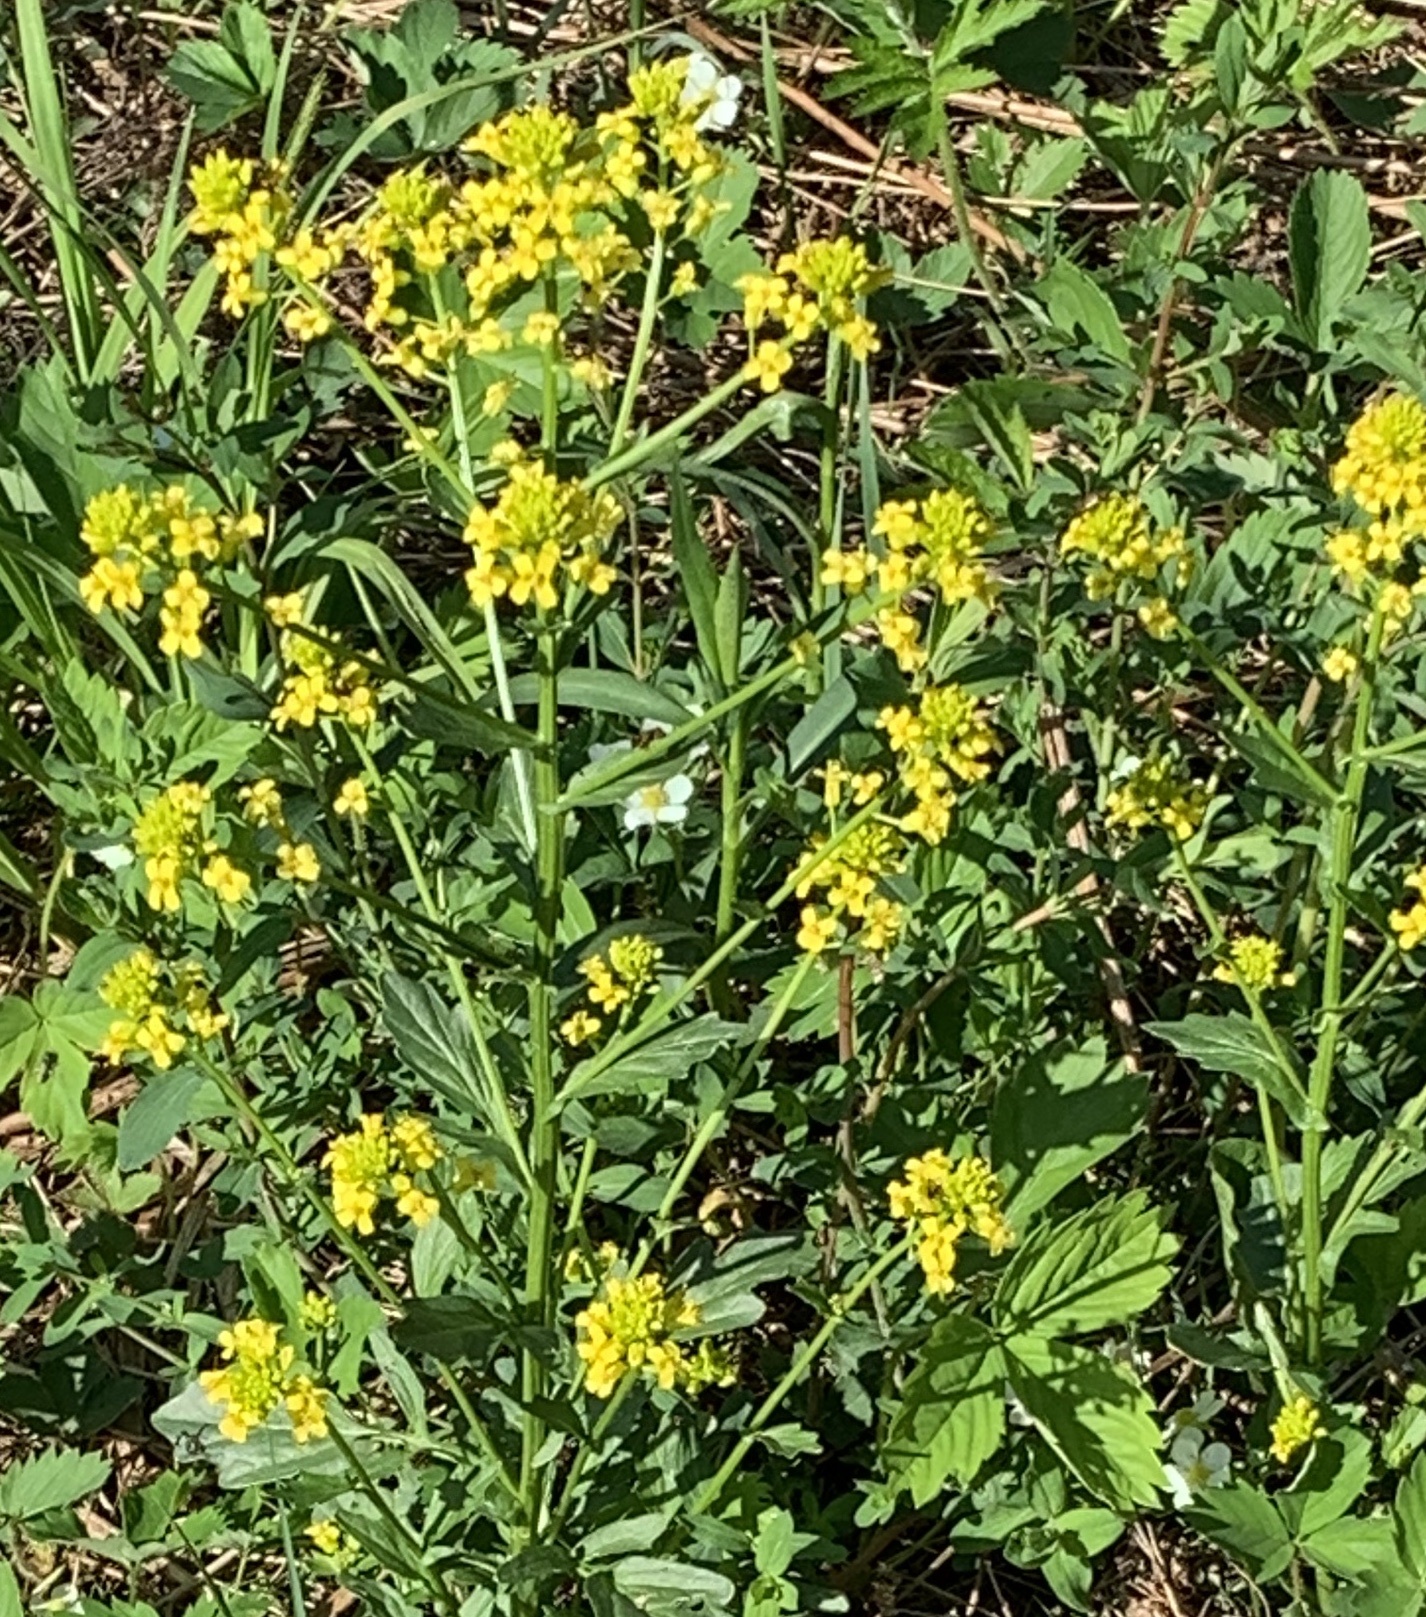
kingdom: Plantae
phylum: Tracheophyta
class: Magnoliopsida
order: Brassicales
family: Brassicaceae
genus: Barbarea
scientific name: Barbarea vulgaris
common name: Cressy-greens
